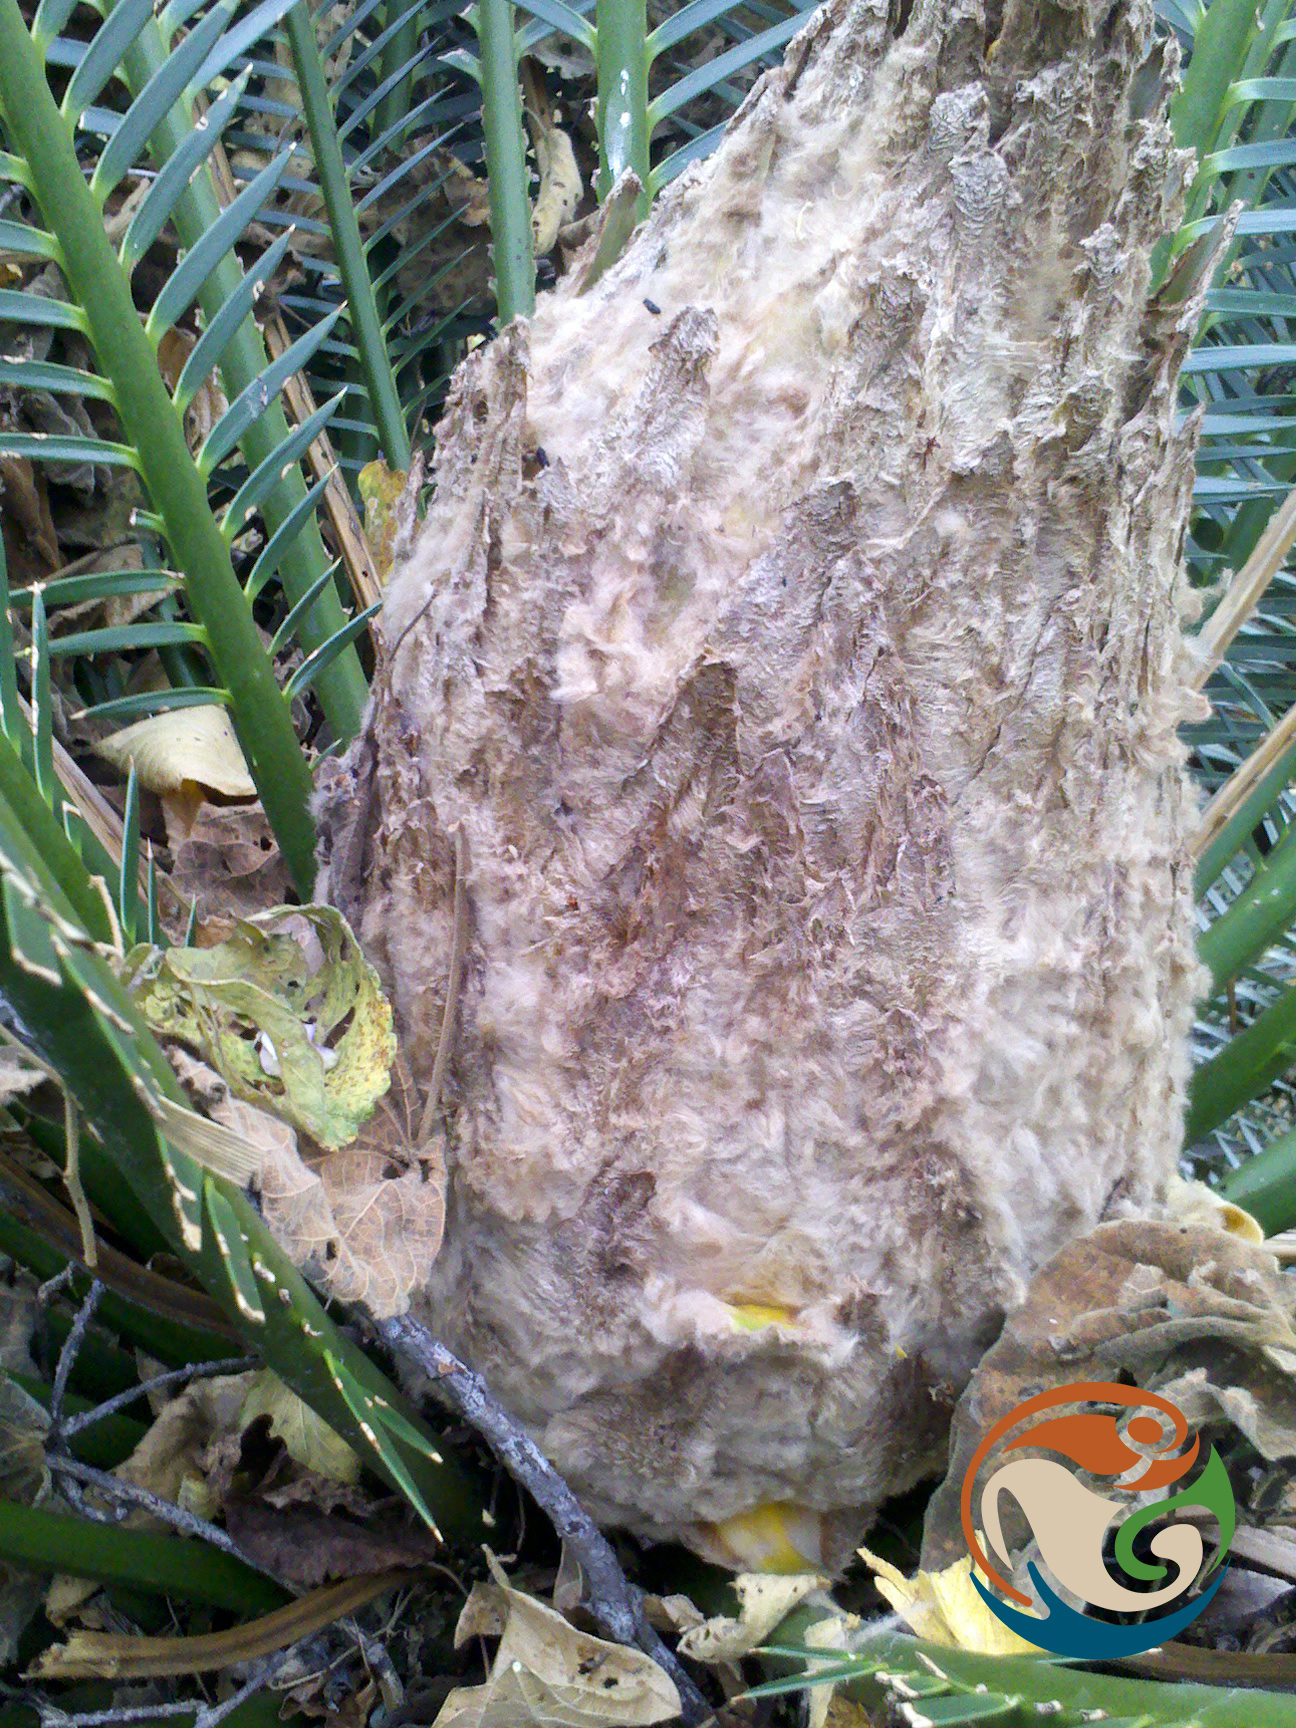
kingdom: Plantae
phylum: Tracheophyta
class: Cycadopsida
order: Cycadales
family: Zamiaceae
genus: Dioon
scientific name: Dioon purpusii
